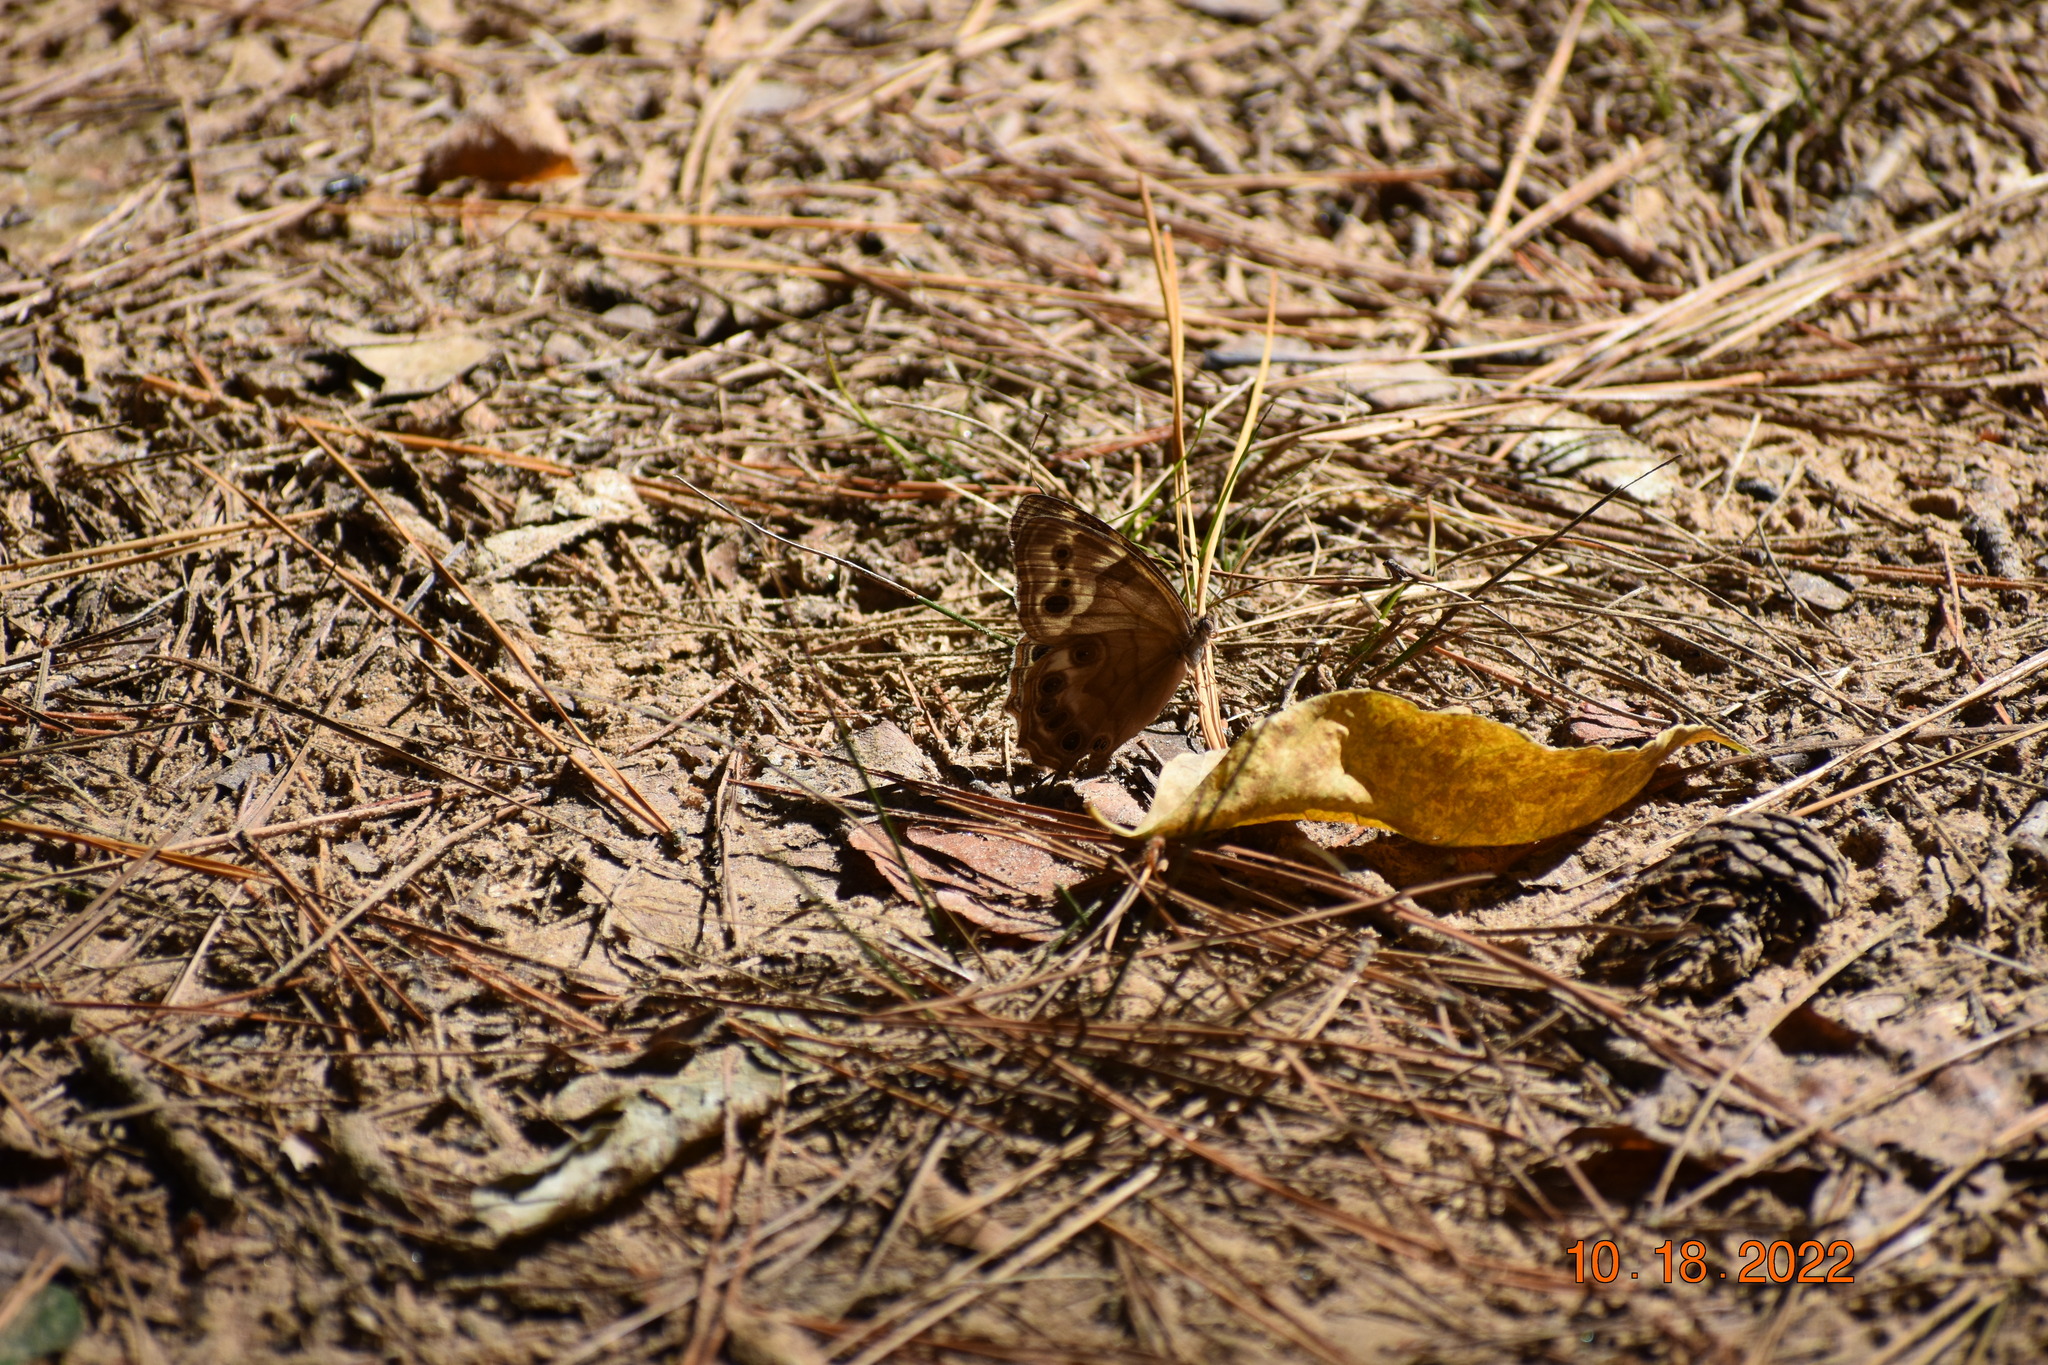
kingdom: Animalia
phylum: Arthropoda
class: Insecta
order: Lepidoptera
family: Nymphalidae
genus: Enodia
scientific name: Enodia portlandia
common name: Southern pearly-eye
